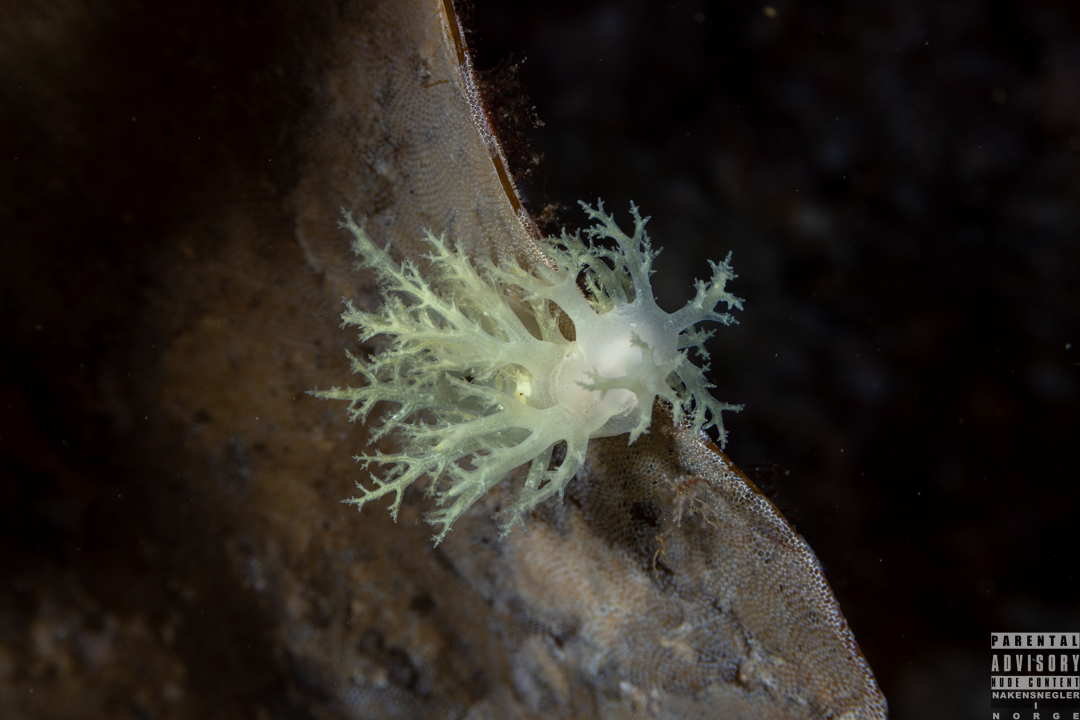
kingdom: Animalia
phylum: Mollusca
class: Gastropoda
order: Nudibranchia
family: Dendronotidae
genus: Dendronotus
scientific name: Dendronotus europaeus
